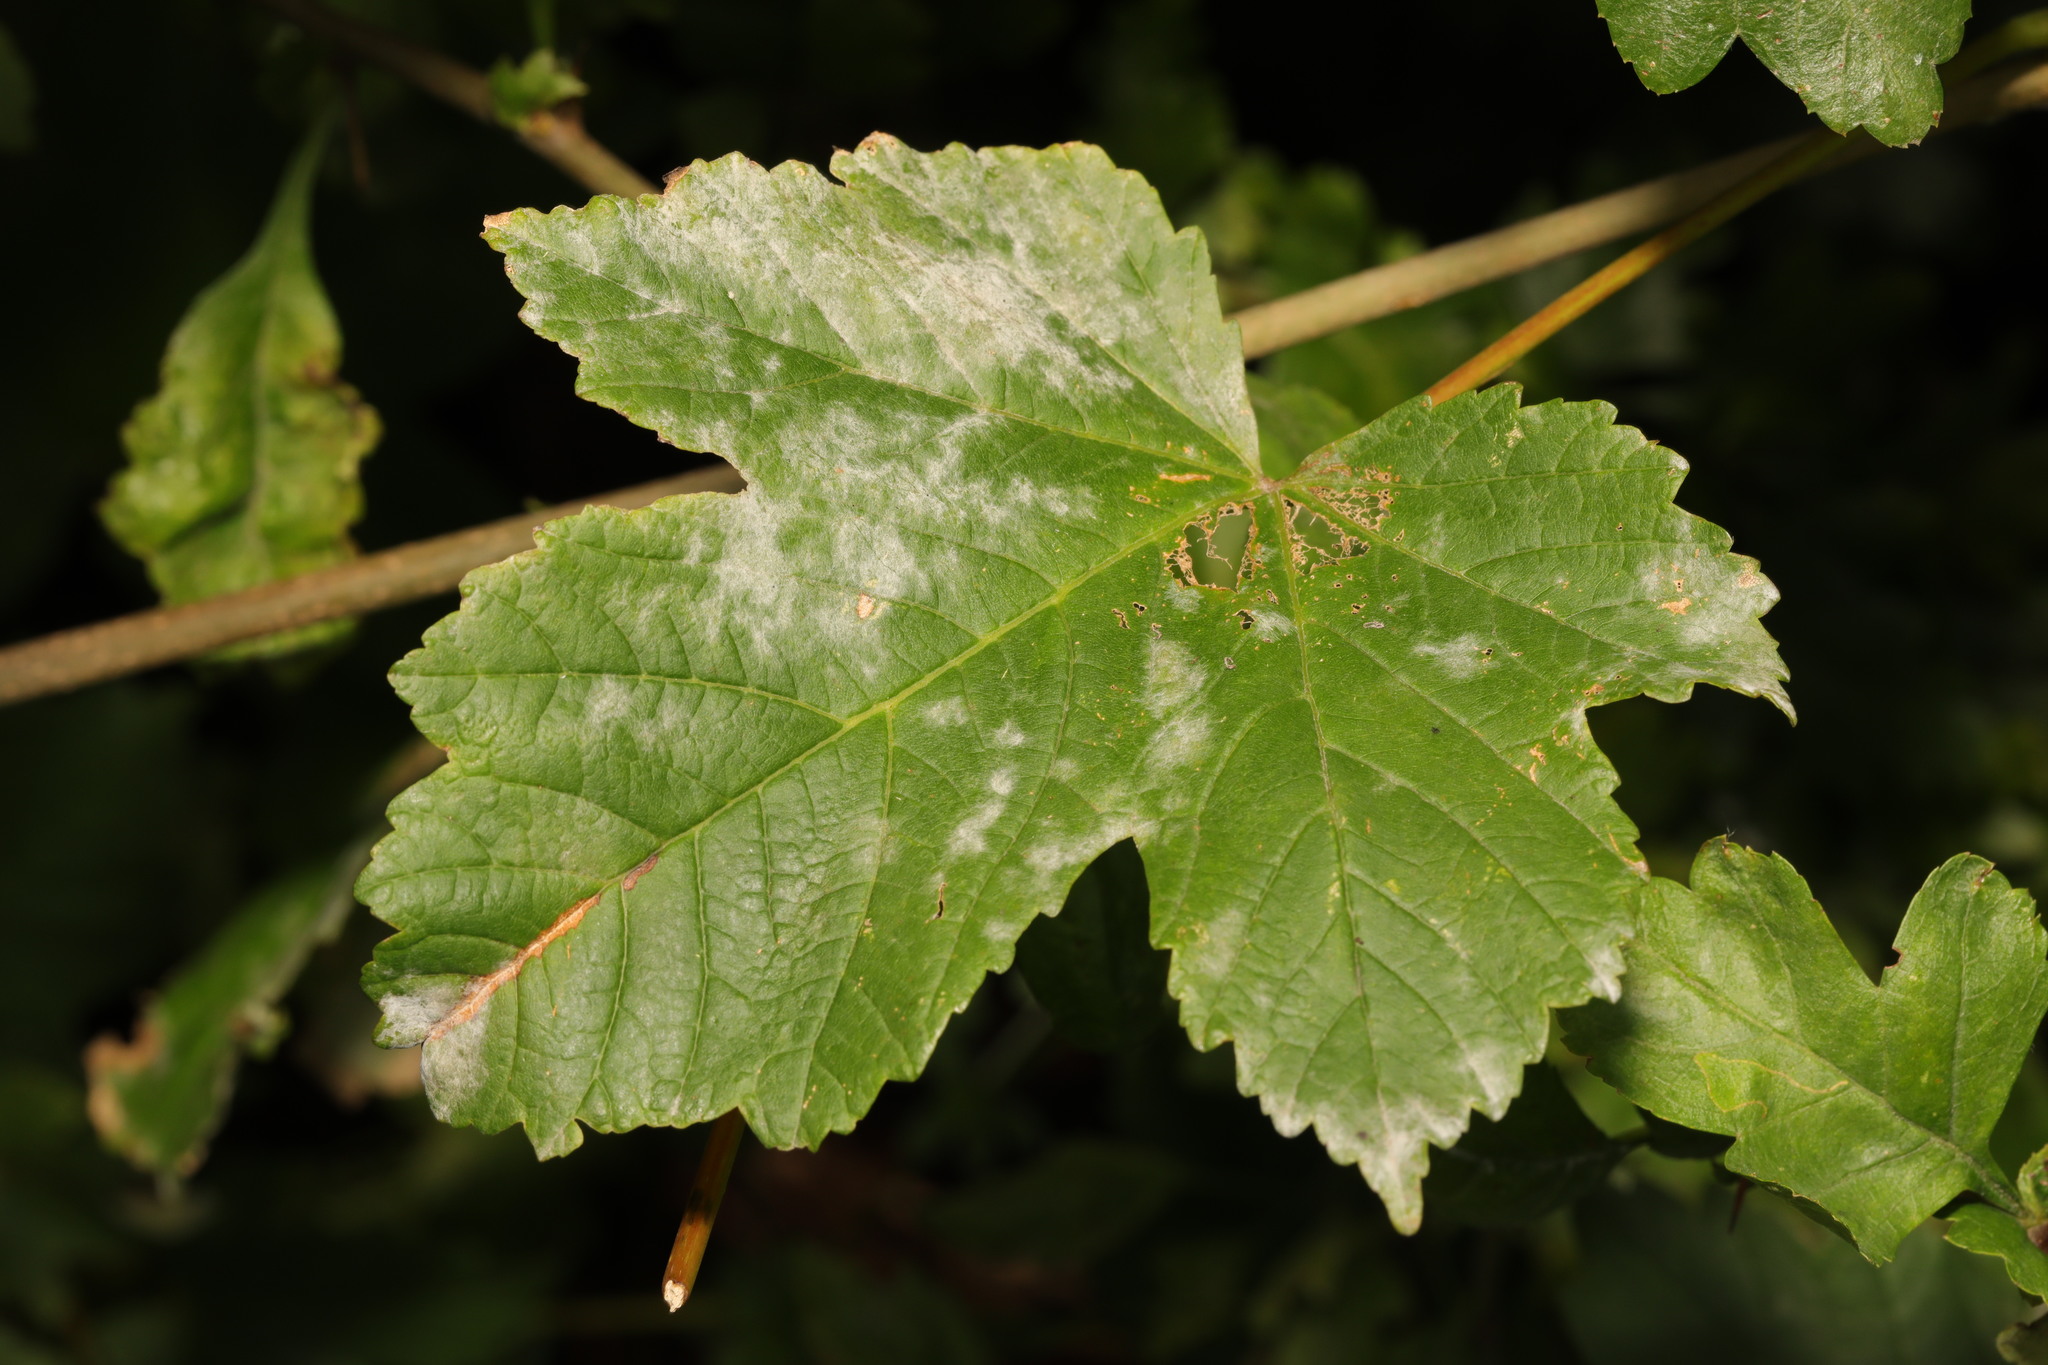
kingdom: Fungi
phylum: Ascomycota
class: Leotiomycetes
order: Helotiales
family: Erysiphaceae
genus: Sawadaea
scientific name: Sawadaea bicornis
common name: Maple mildew
